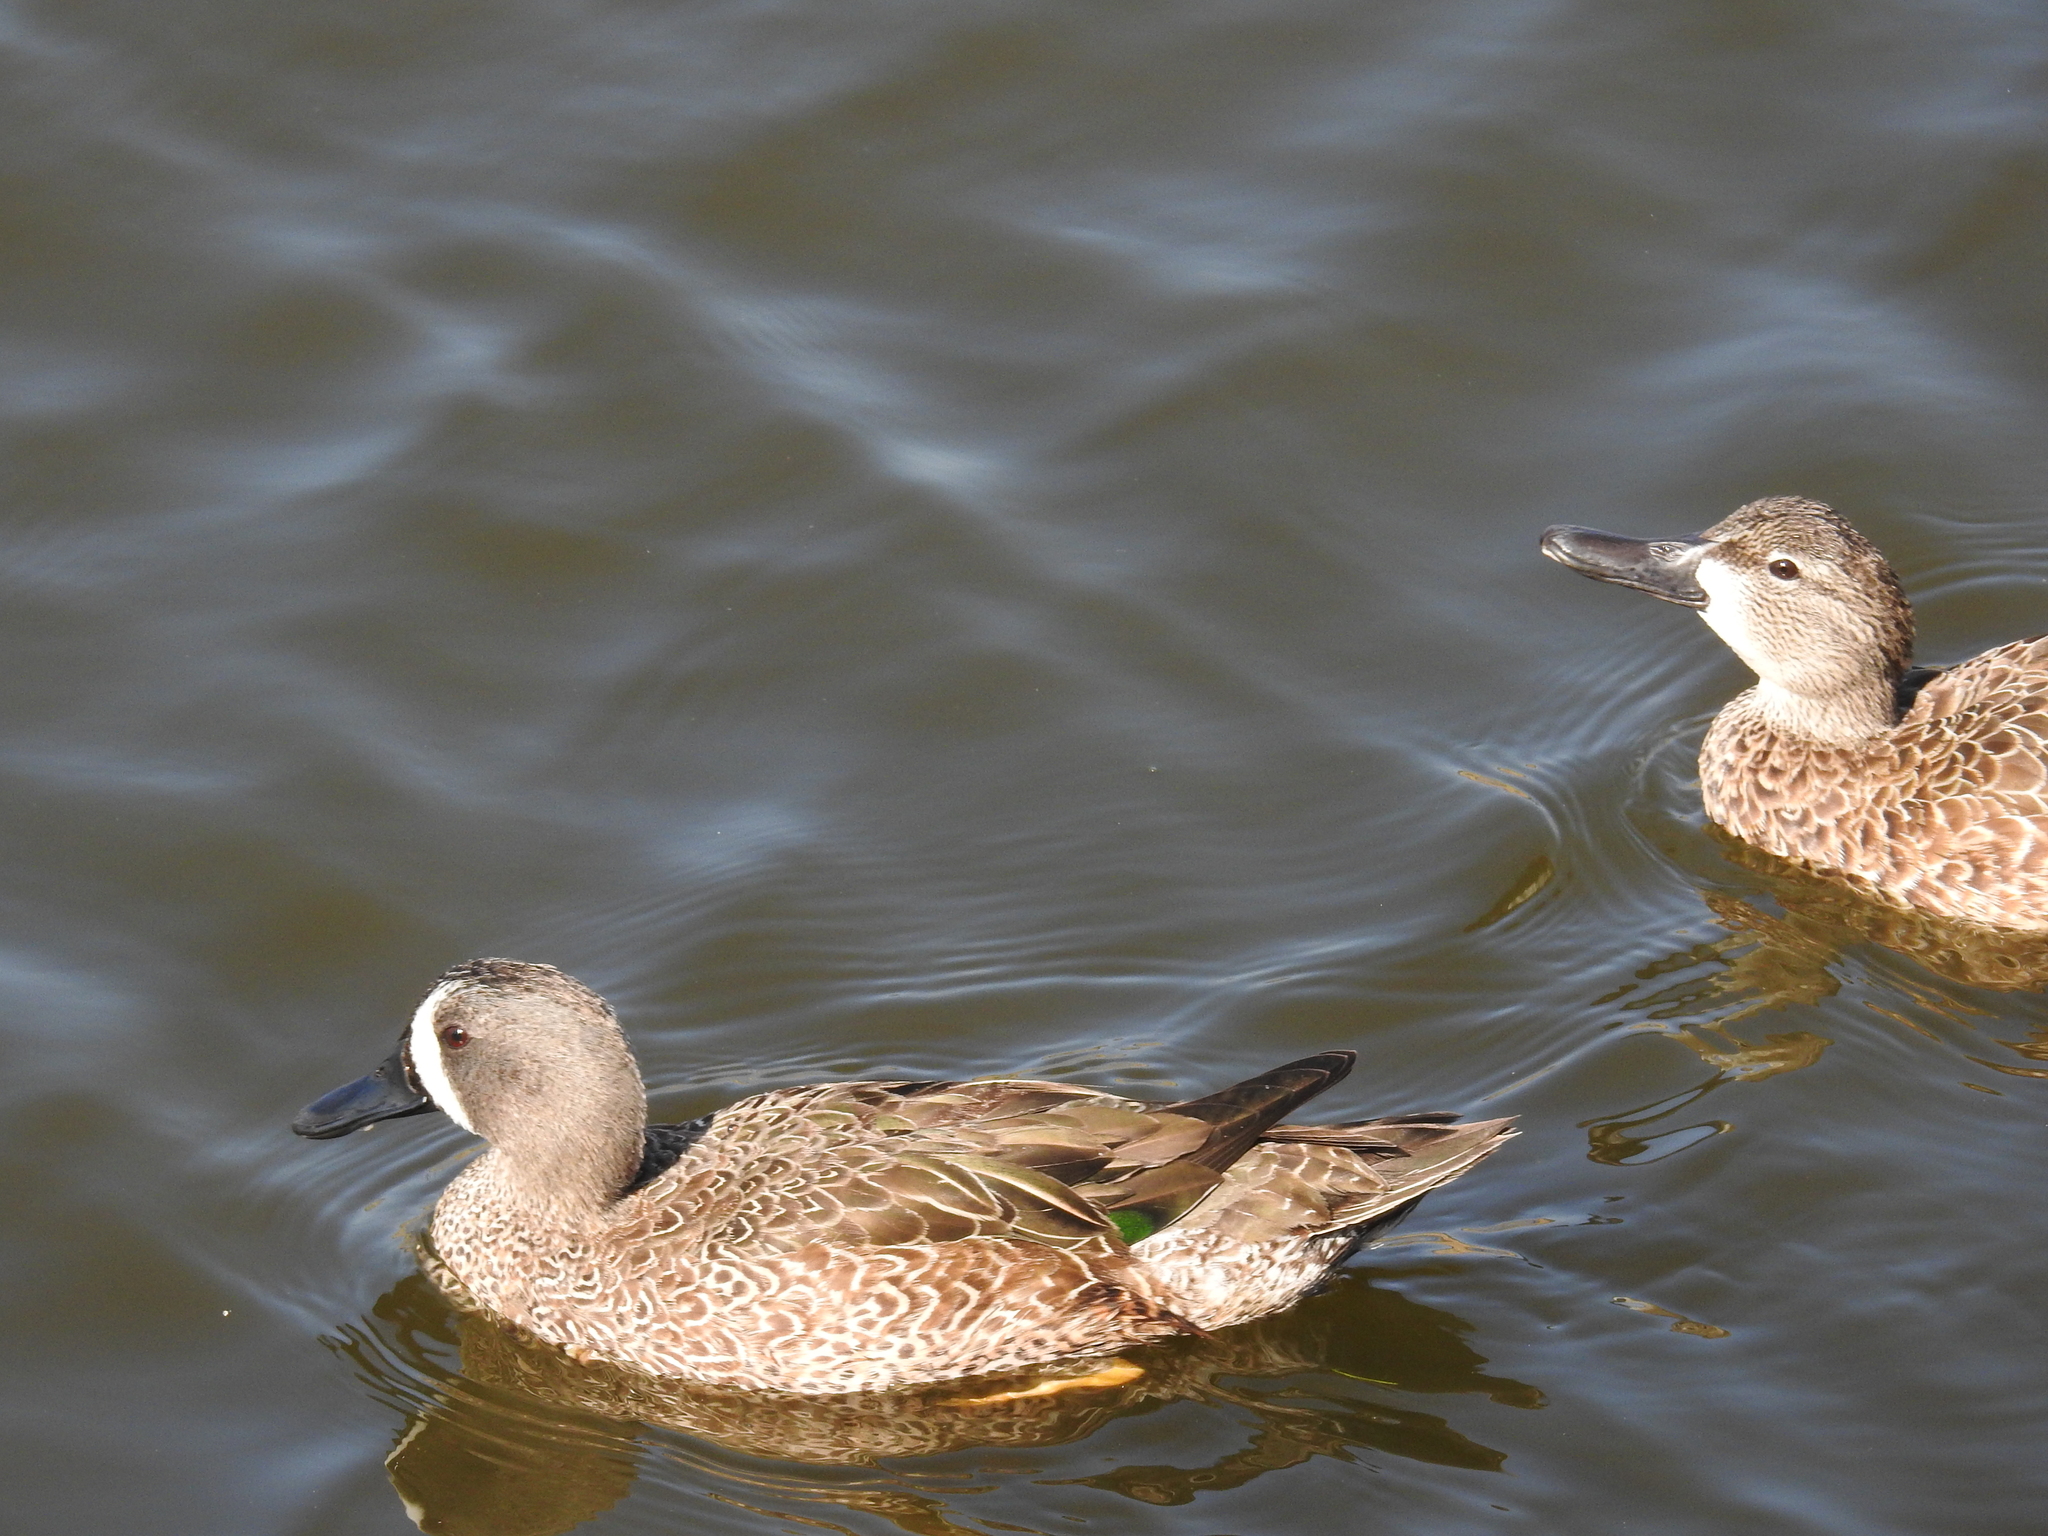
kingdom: Animalia
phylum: Chordata
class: Aves
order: Anseriformes
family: Anatidae
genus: Spatula
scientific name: Spatula discors
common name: Blue-winged teal
